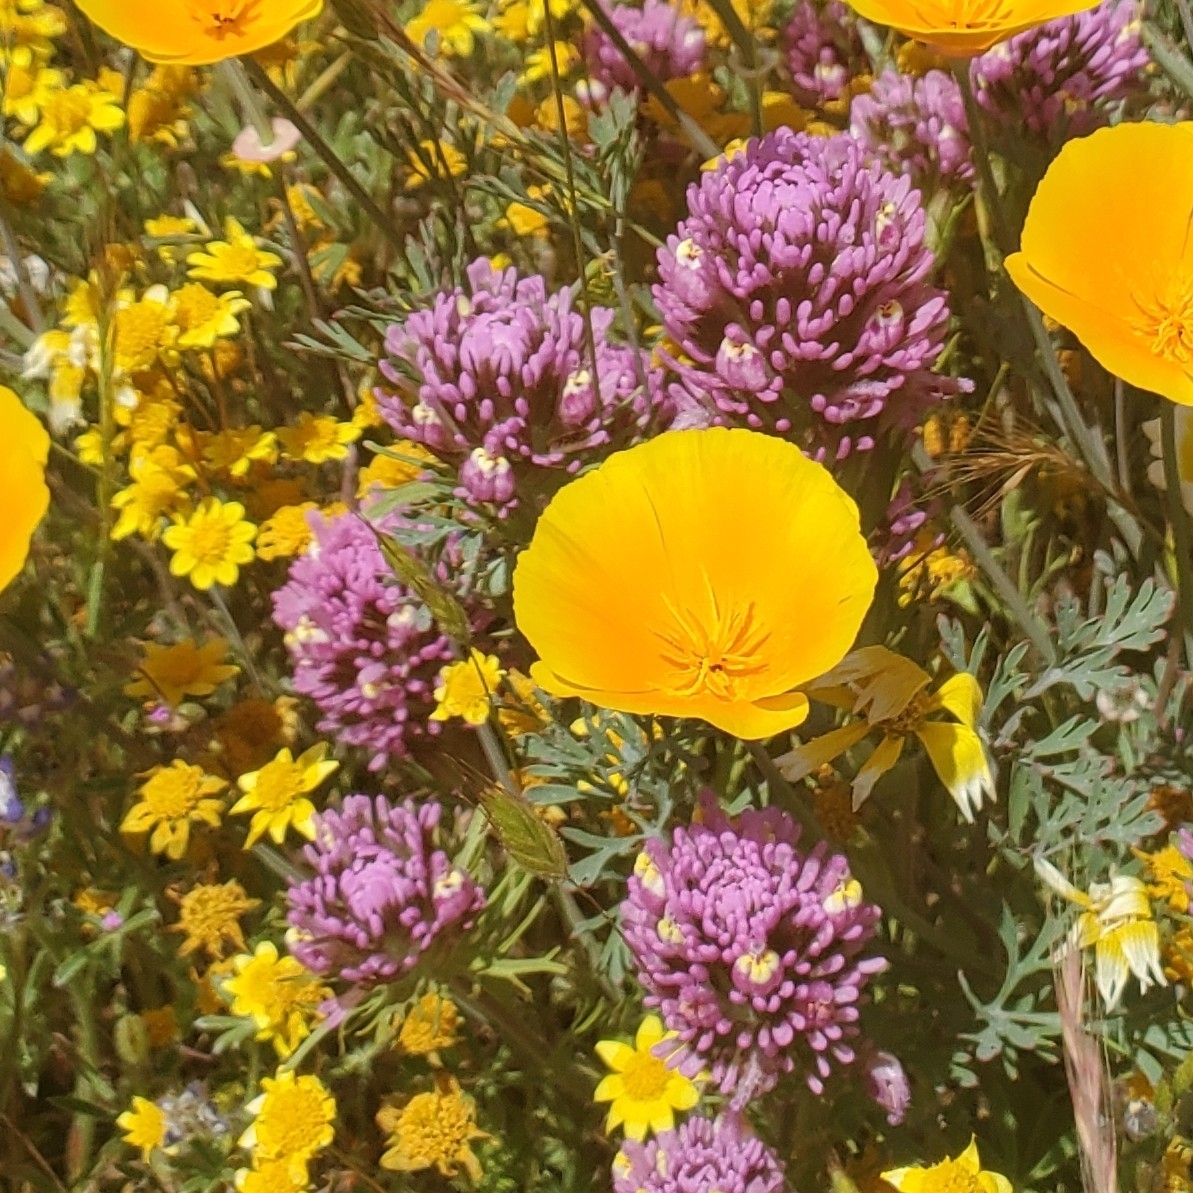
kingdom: Plantae
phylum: Tracheophyta
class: Magnoliopsida
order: Lamiales
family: Orobanchaceae
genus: Castilleja
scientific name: Castilleja exserta
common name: Purple owl-clover
